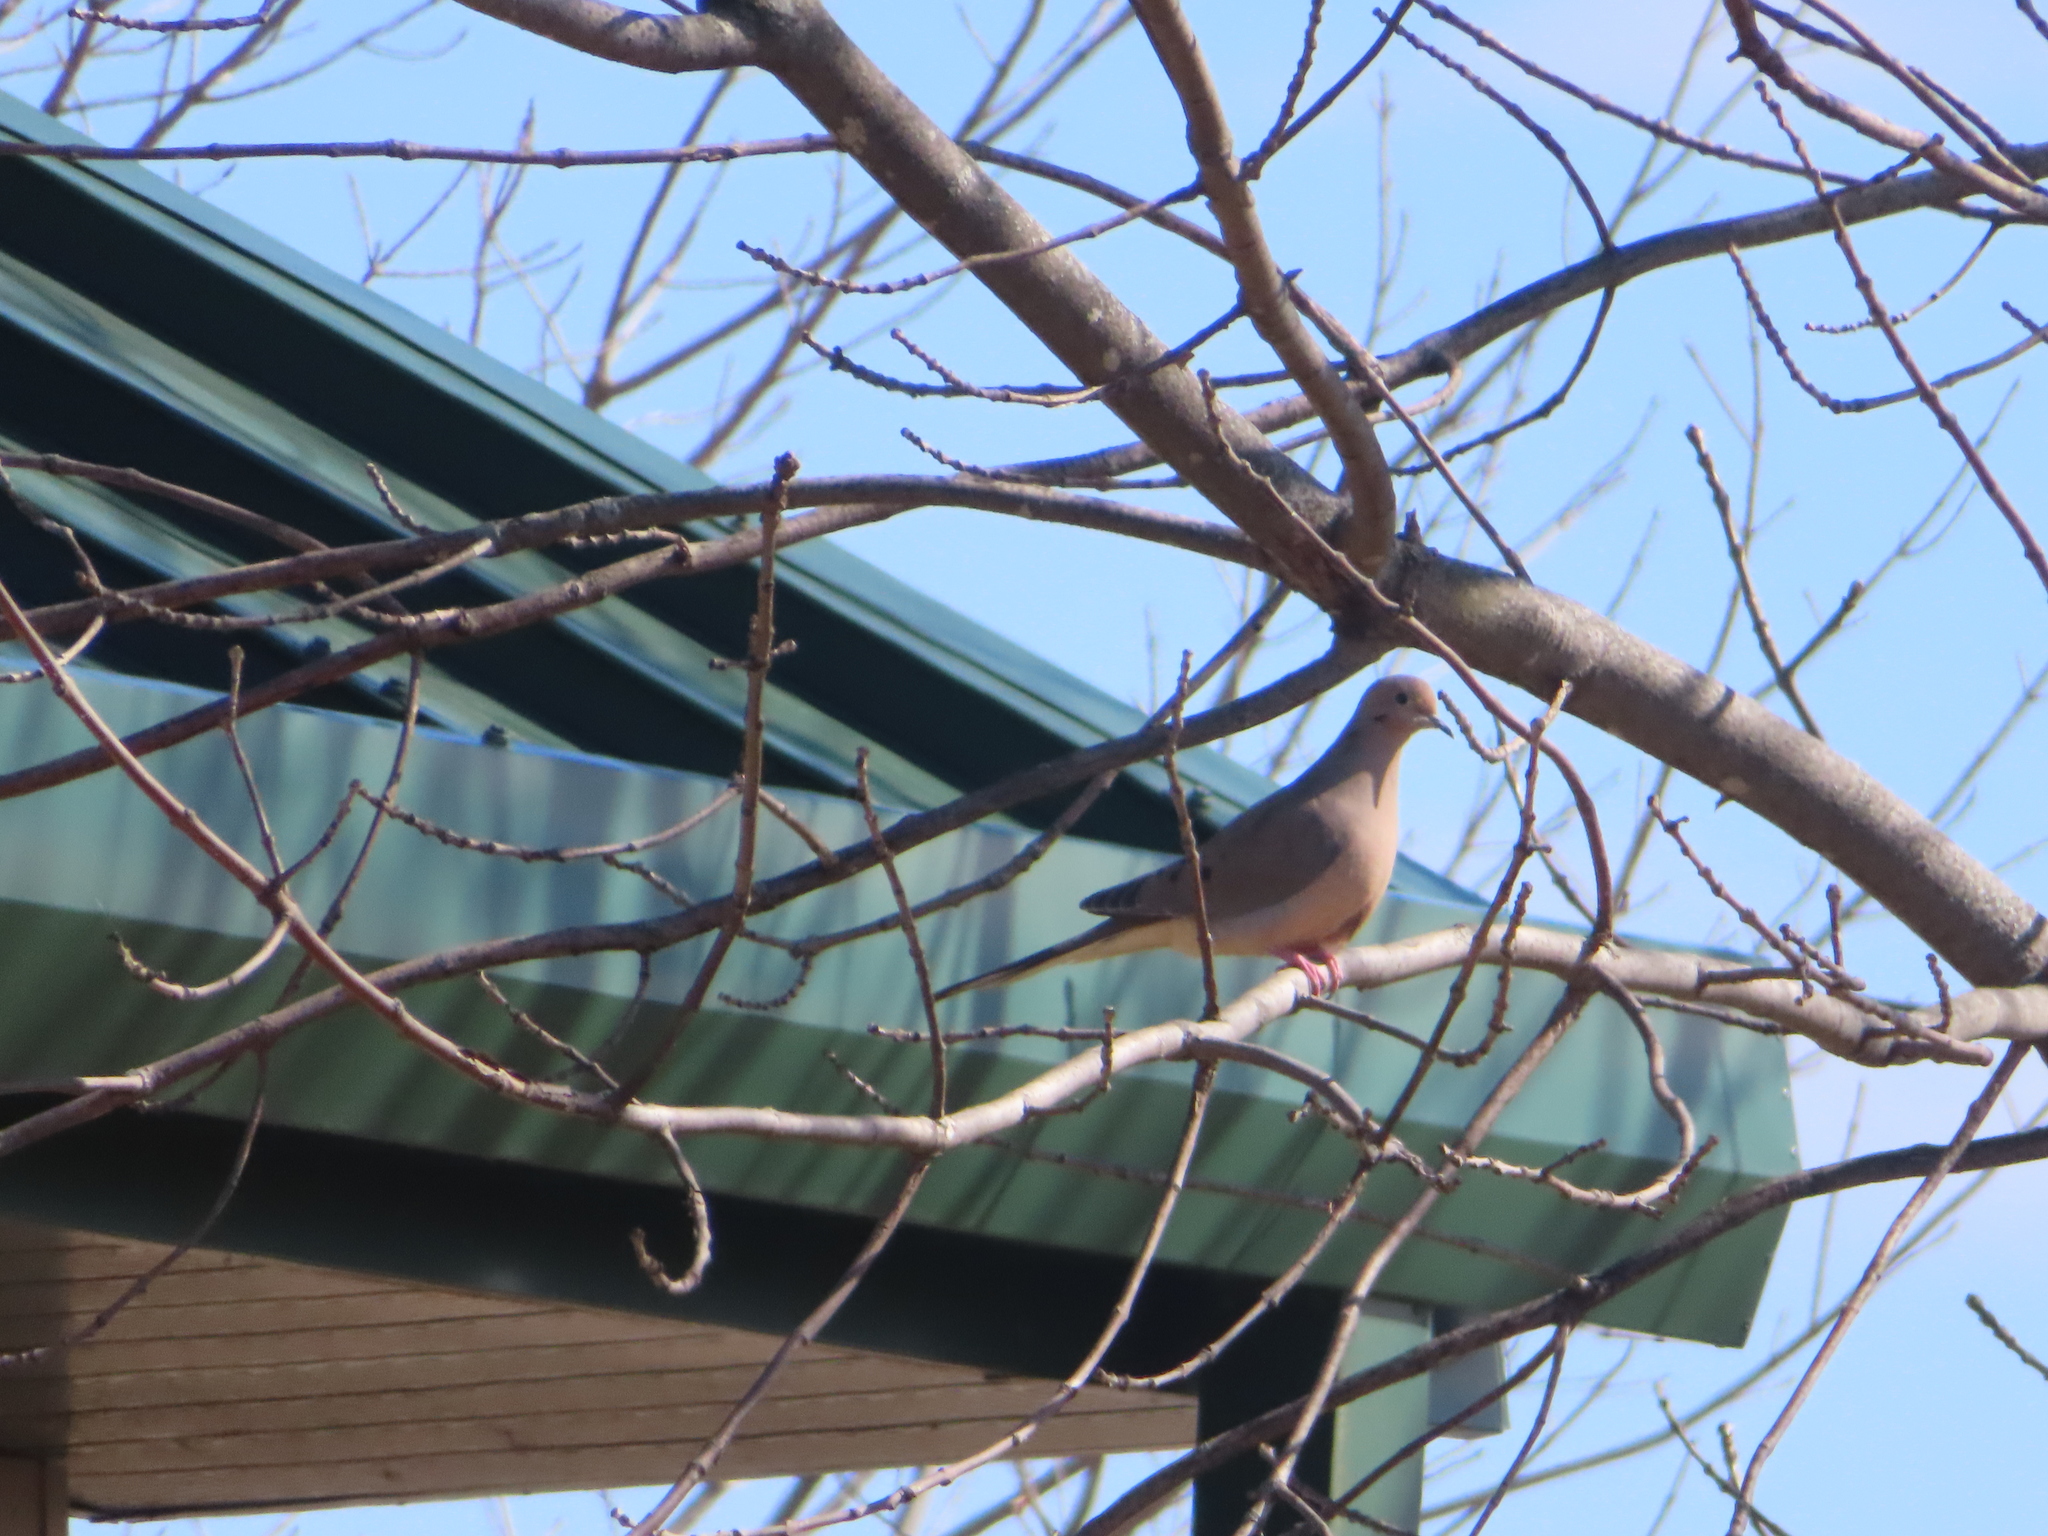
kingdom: Animalia
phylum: Chordata
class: Aves
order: Columbiformes
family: Columbidae
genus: Zenaida
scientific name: Zenaida macroura
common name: Mourning dove
